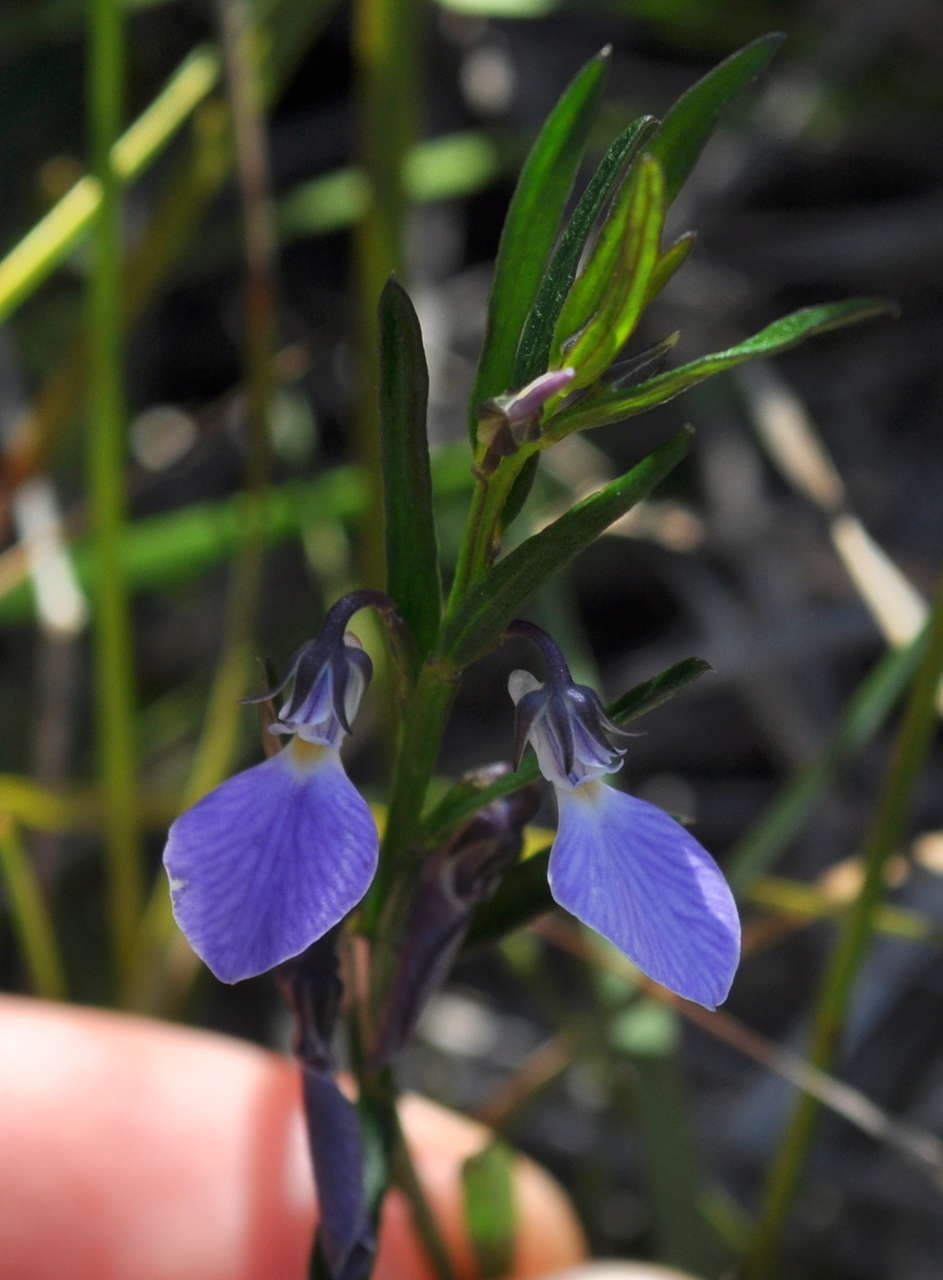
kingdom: Plantae
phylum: Tracheophyta
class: Magnoliopsida
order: Malpighiales
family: Violaceae
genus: Pigea
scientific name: Pigea vernonii
